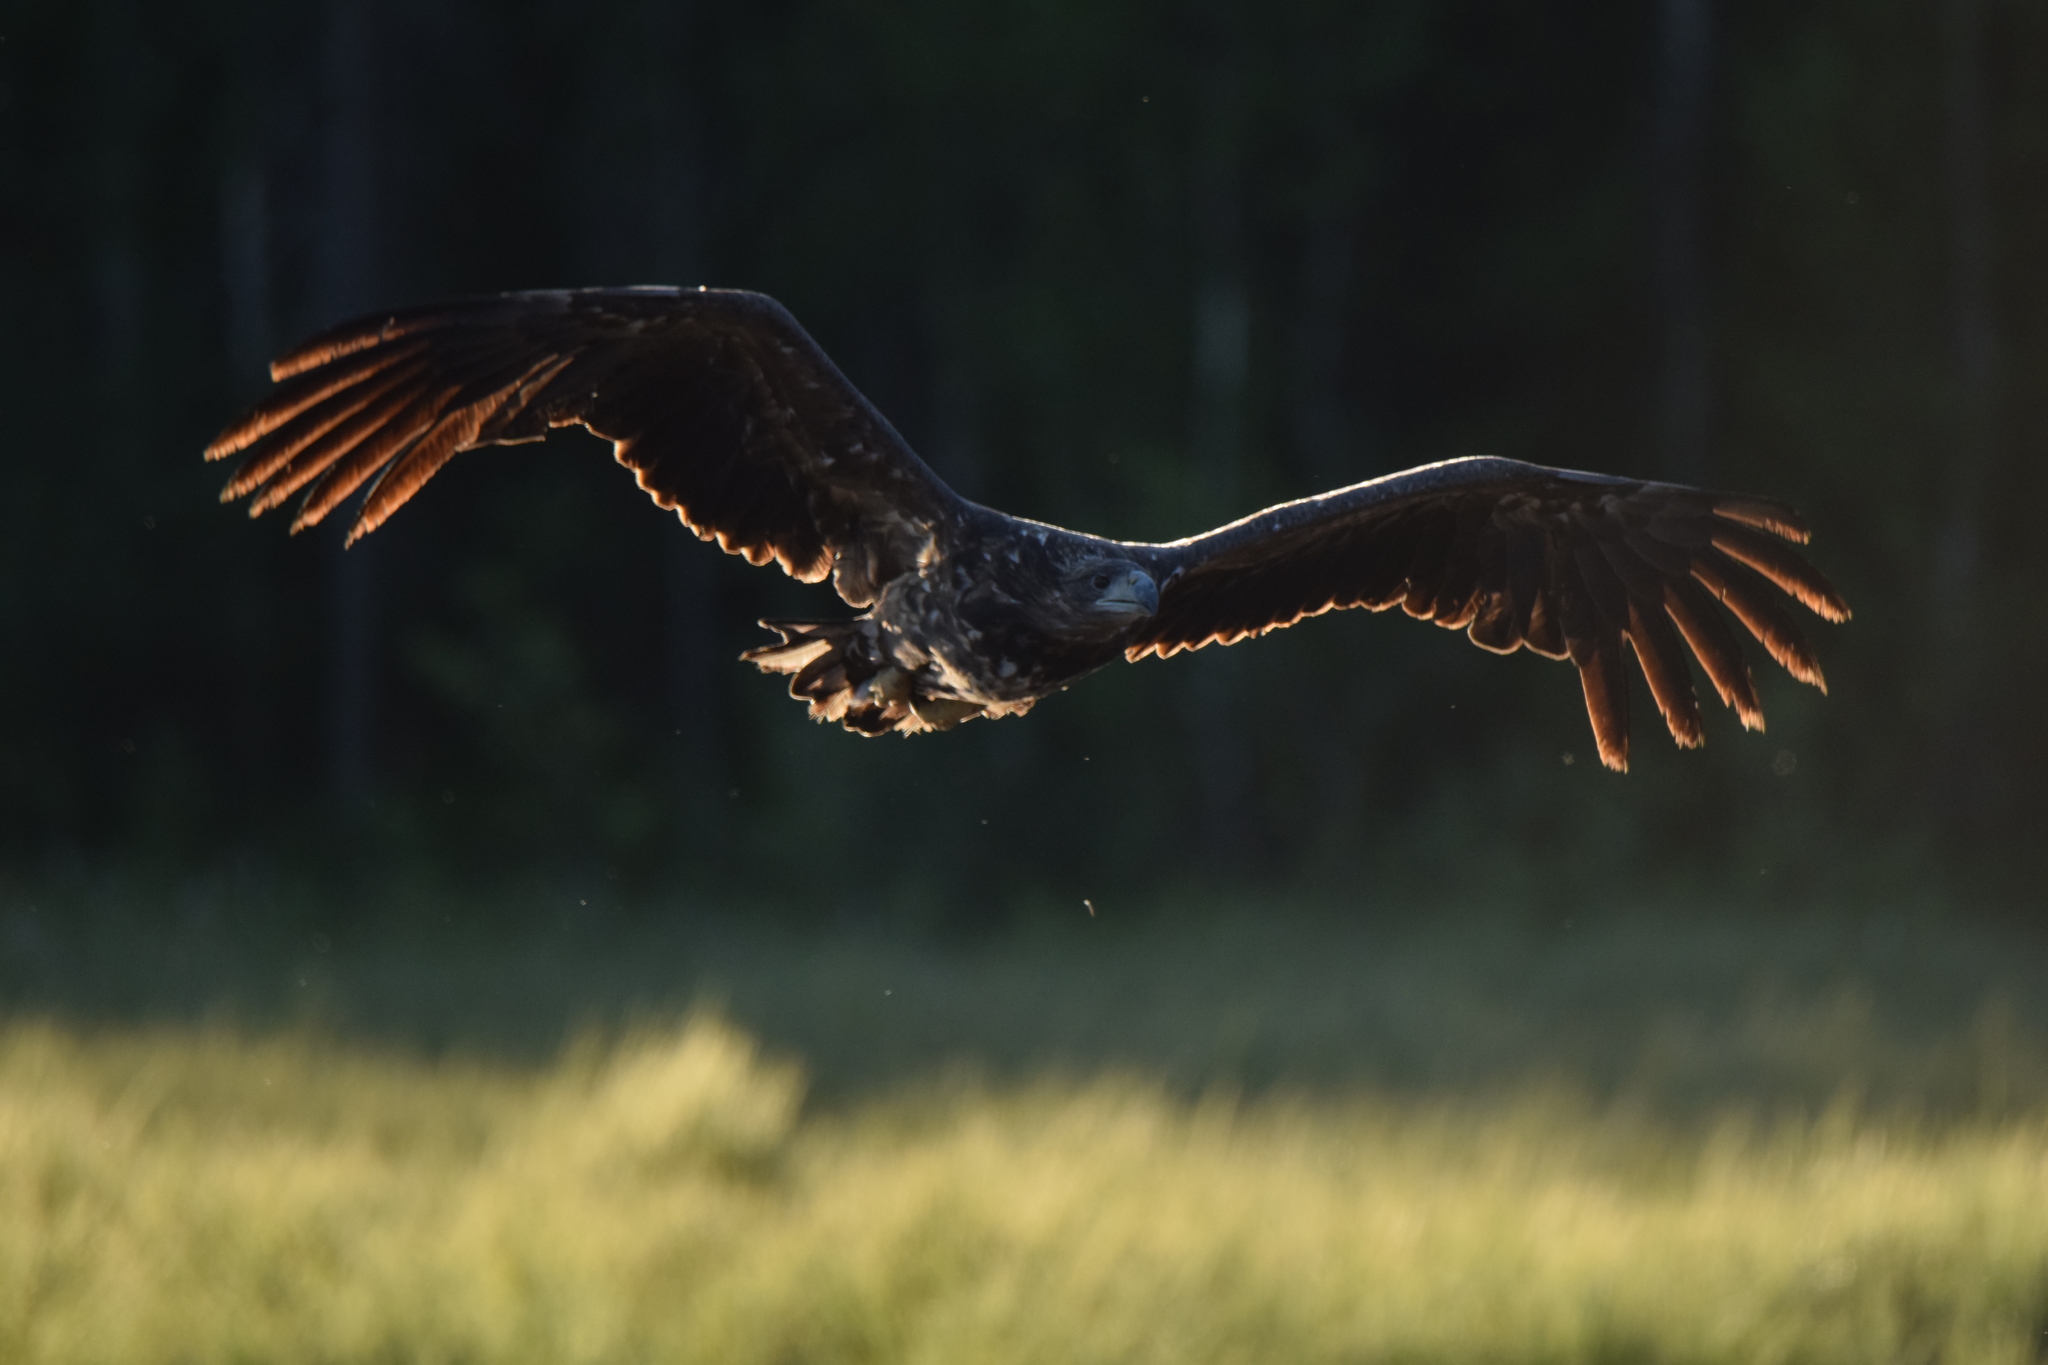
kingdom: Animalia
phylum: Chordata
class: Aves
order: Accipitriformes
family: Accipitridae
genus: Haliaeetus
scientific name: Haliaeetus albicilla
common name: White-tailed eagle
